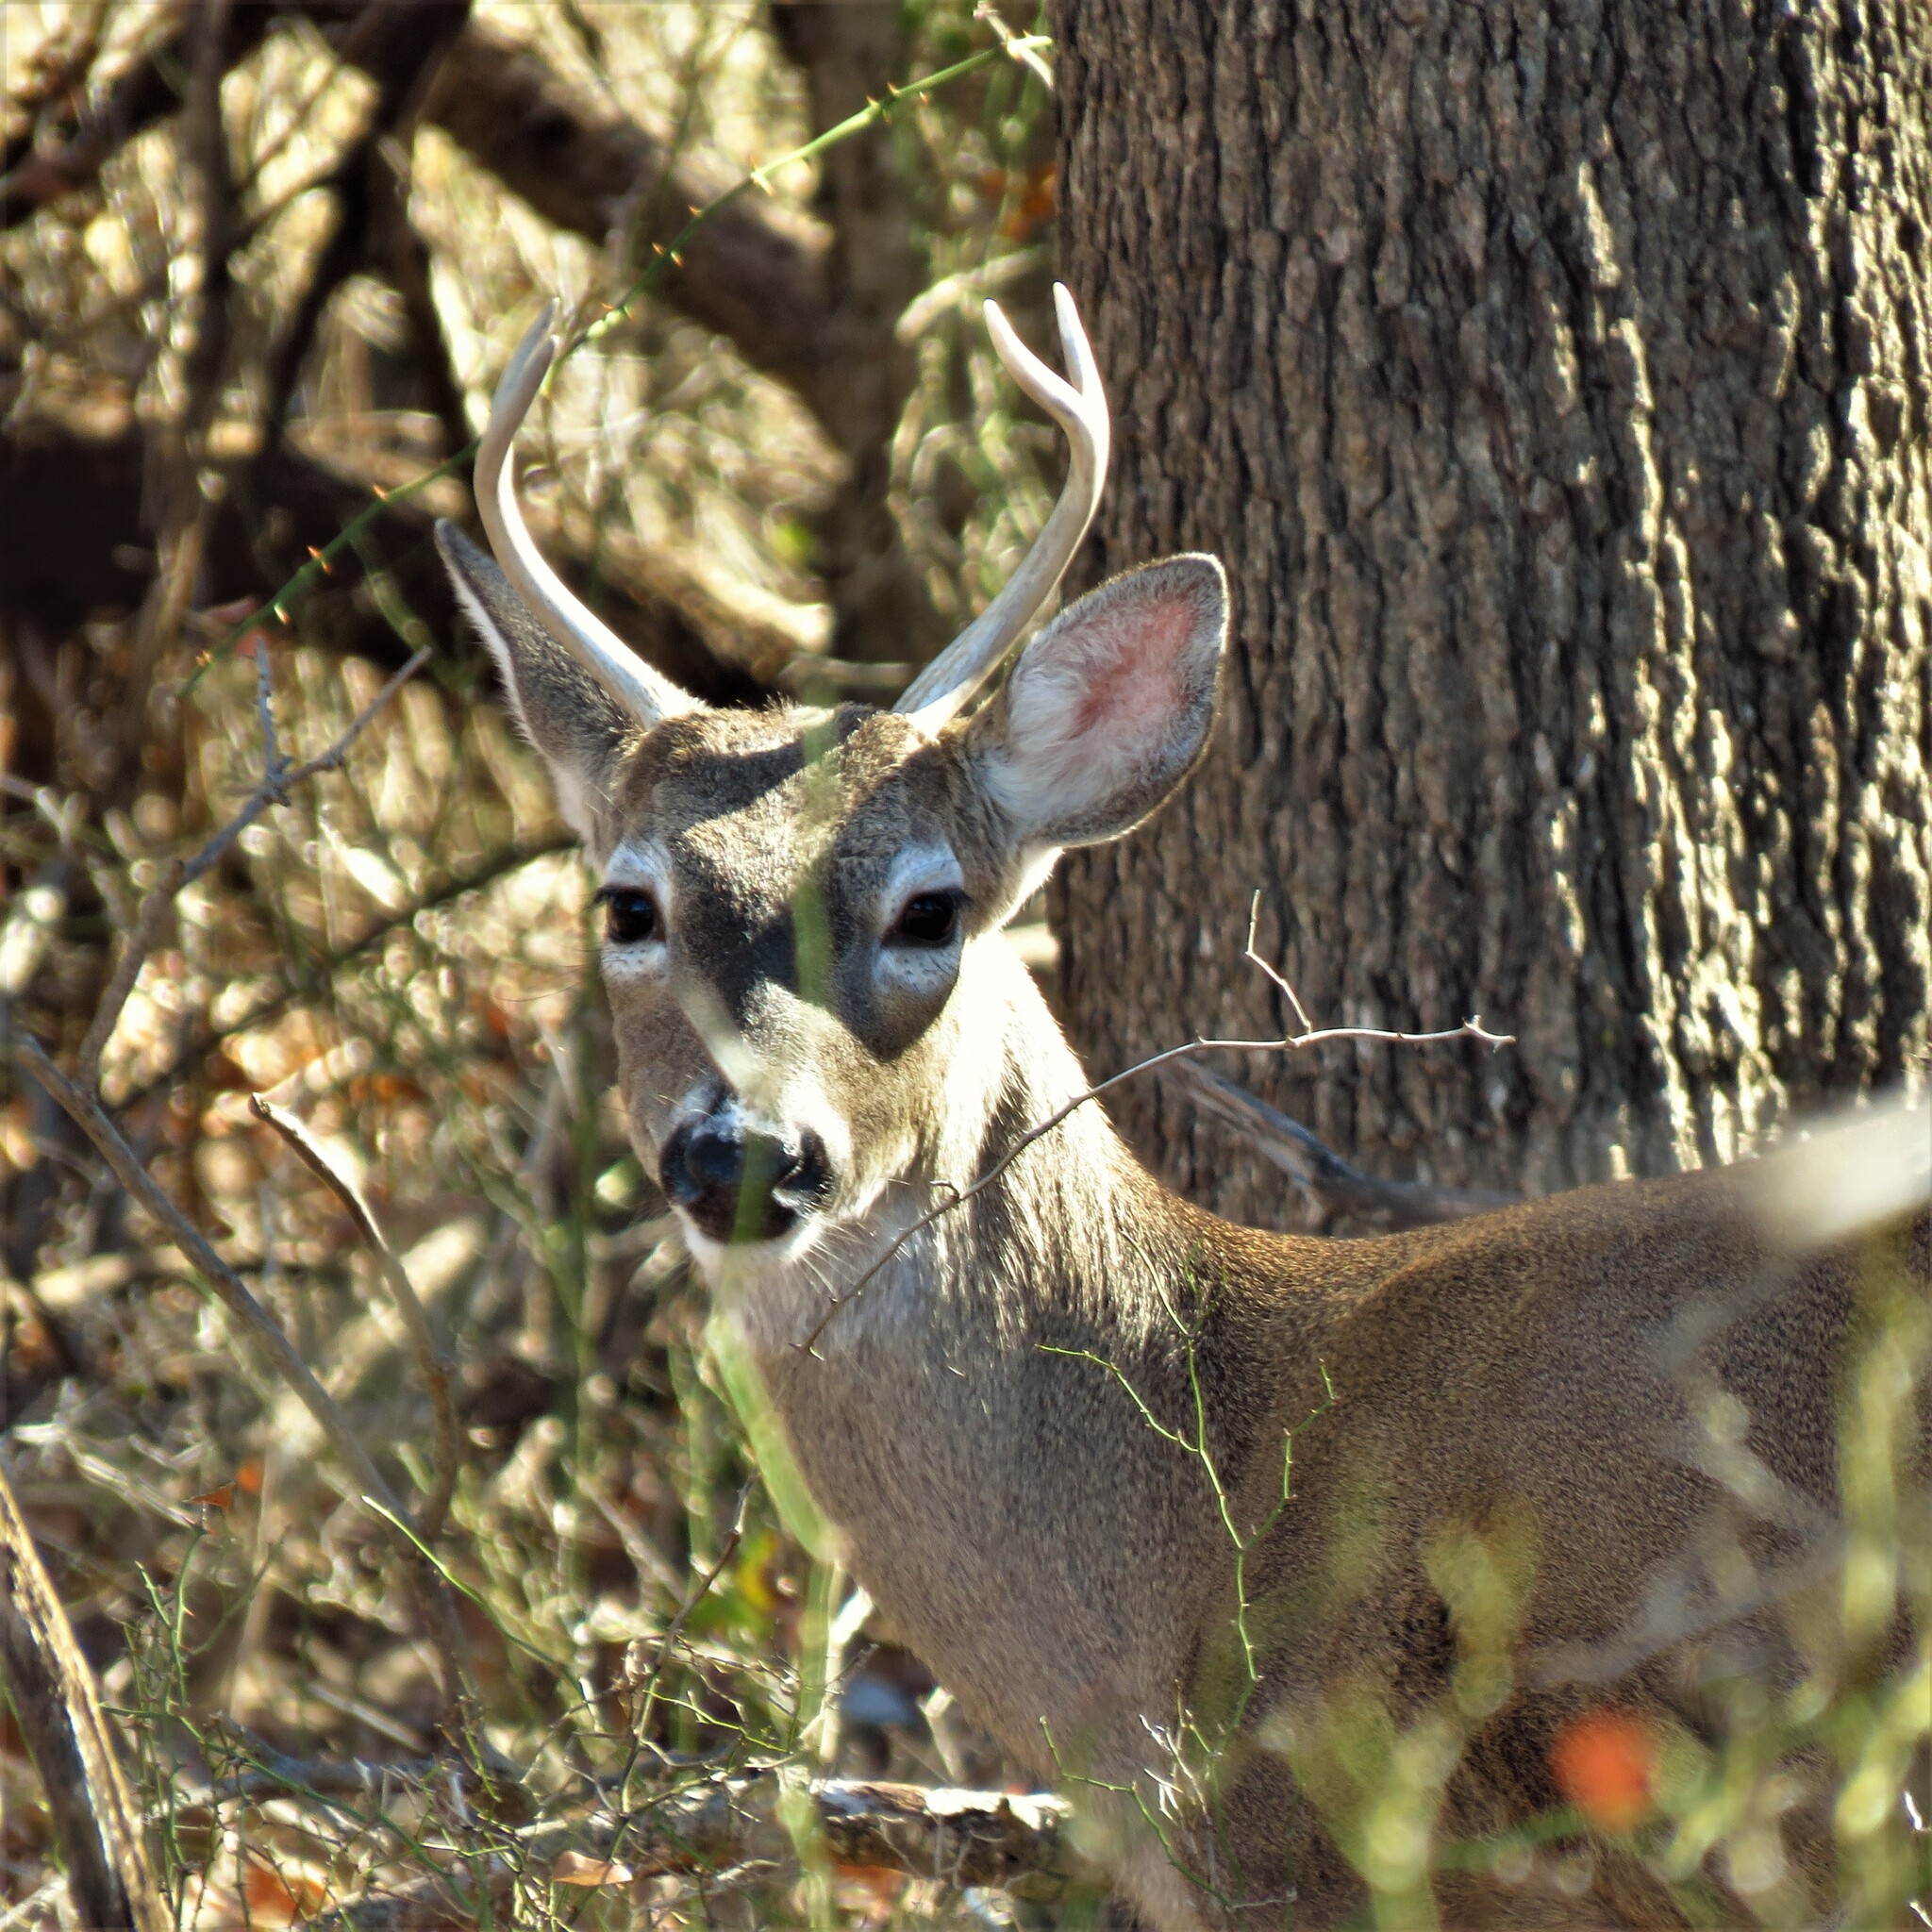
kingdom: Animalia
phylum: Chordata
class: Mammalia
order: Artiodactyla
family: Cervidae
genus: Odocoileus
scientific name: Odocoileus virginianus
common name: White-tailed deer
